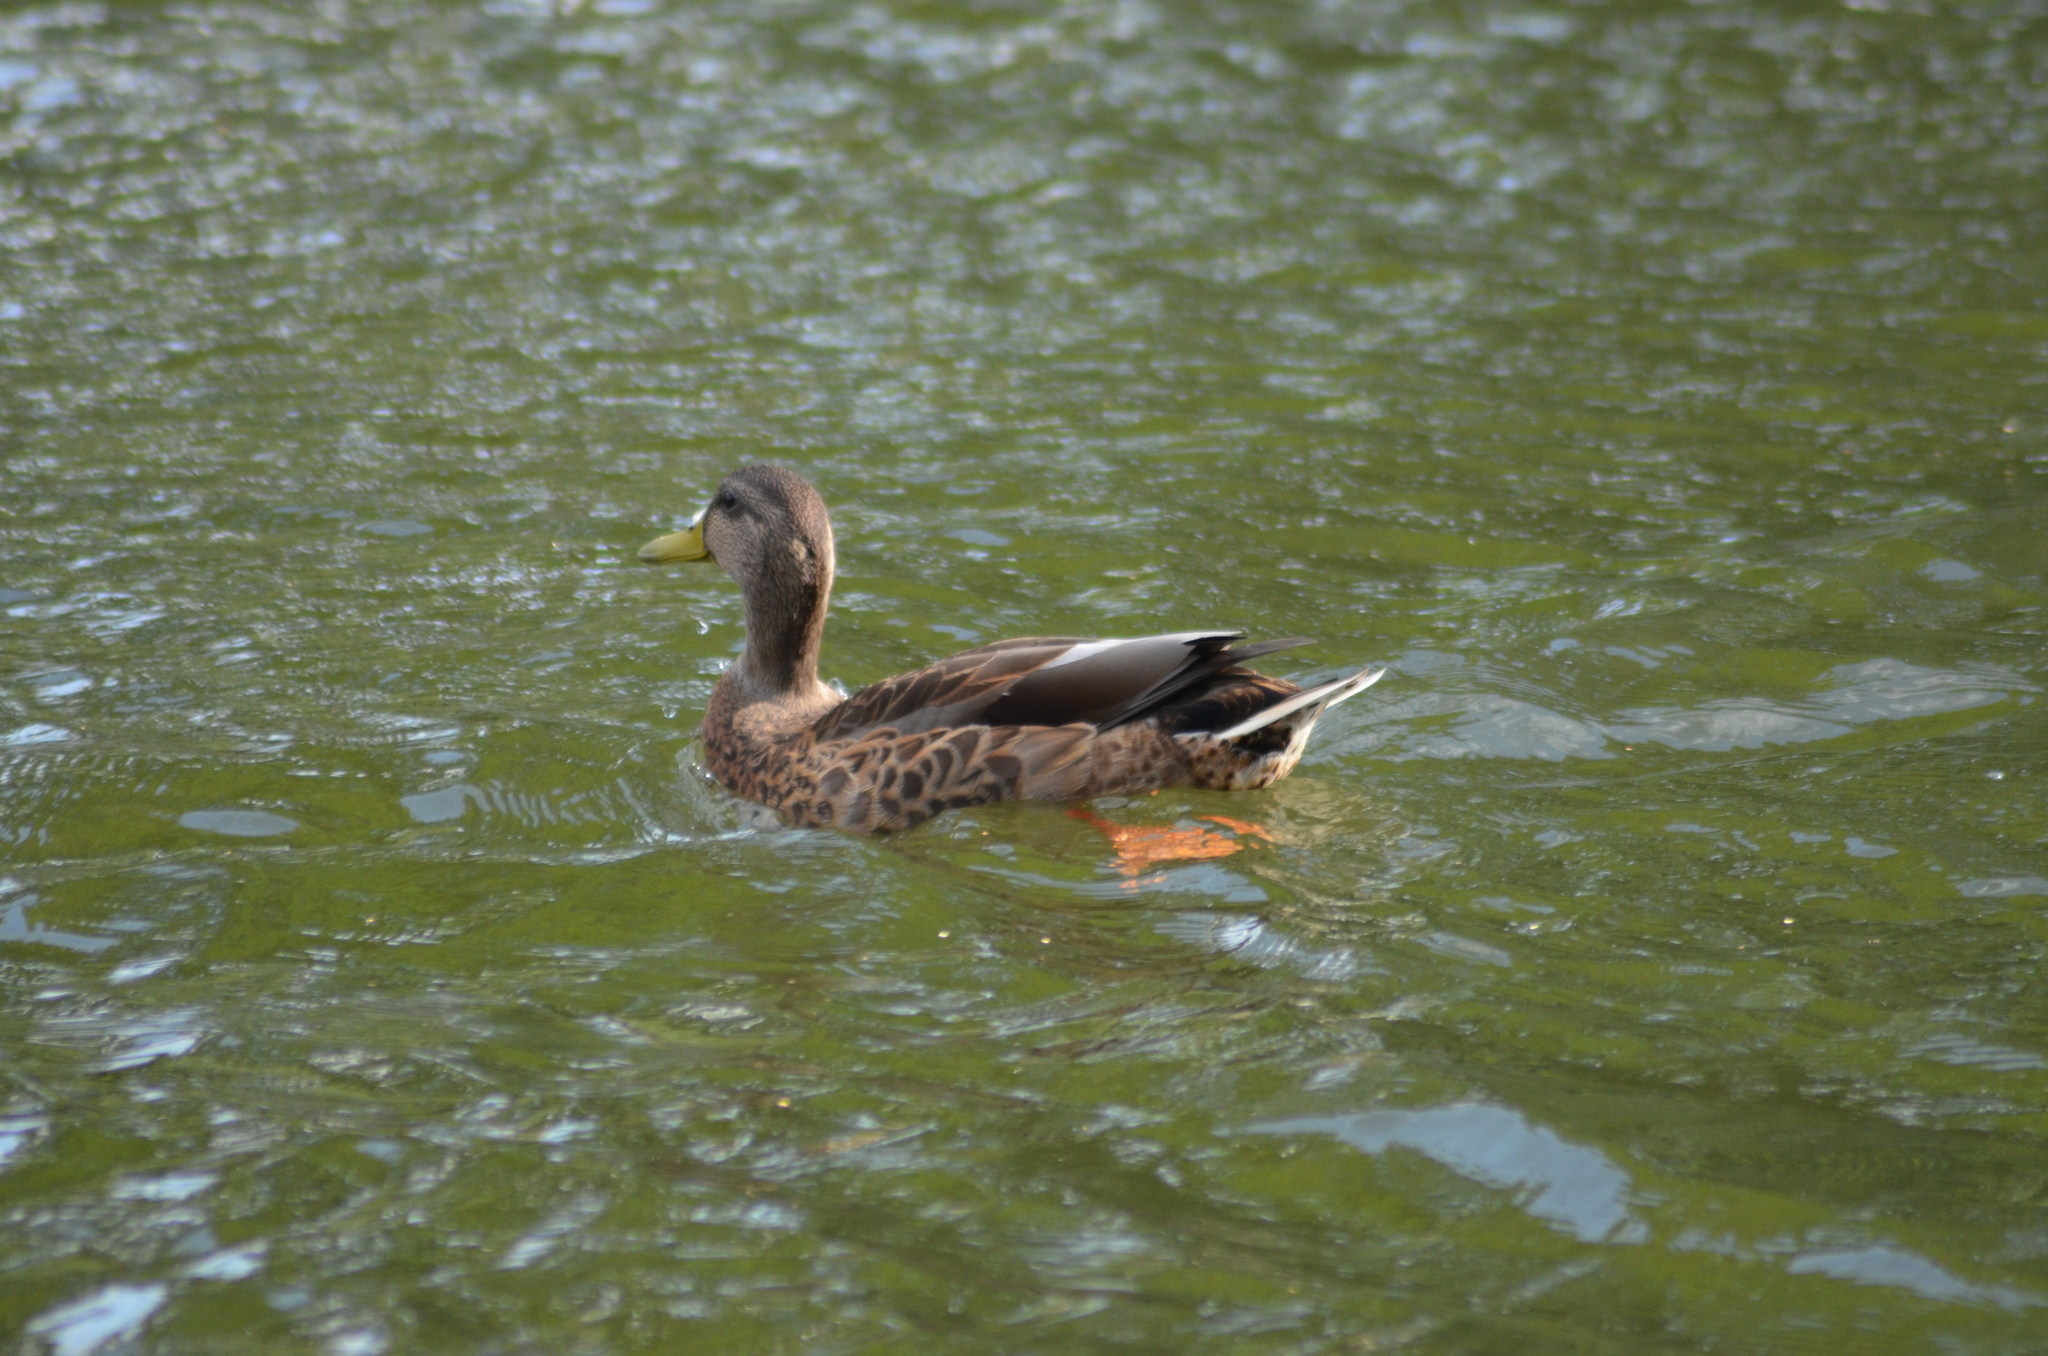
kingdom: Animalia
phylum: Chordata
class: Aves
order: Anseriformes
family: Anatidae
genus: Anas
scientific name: Anas platyrhynchos
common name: Mallard
